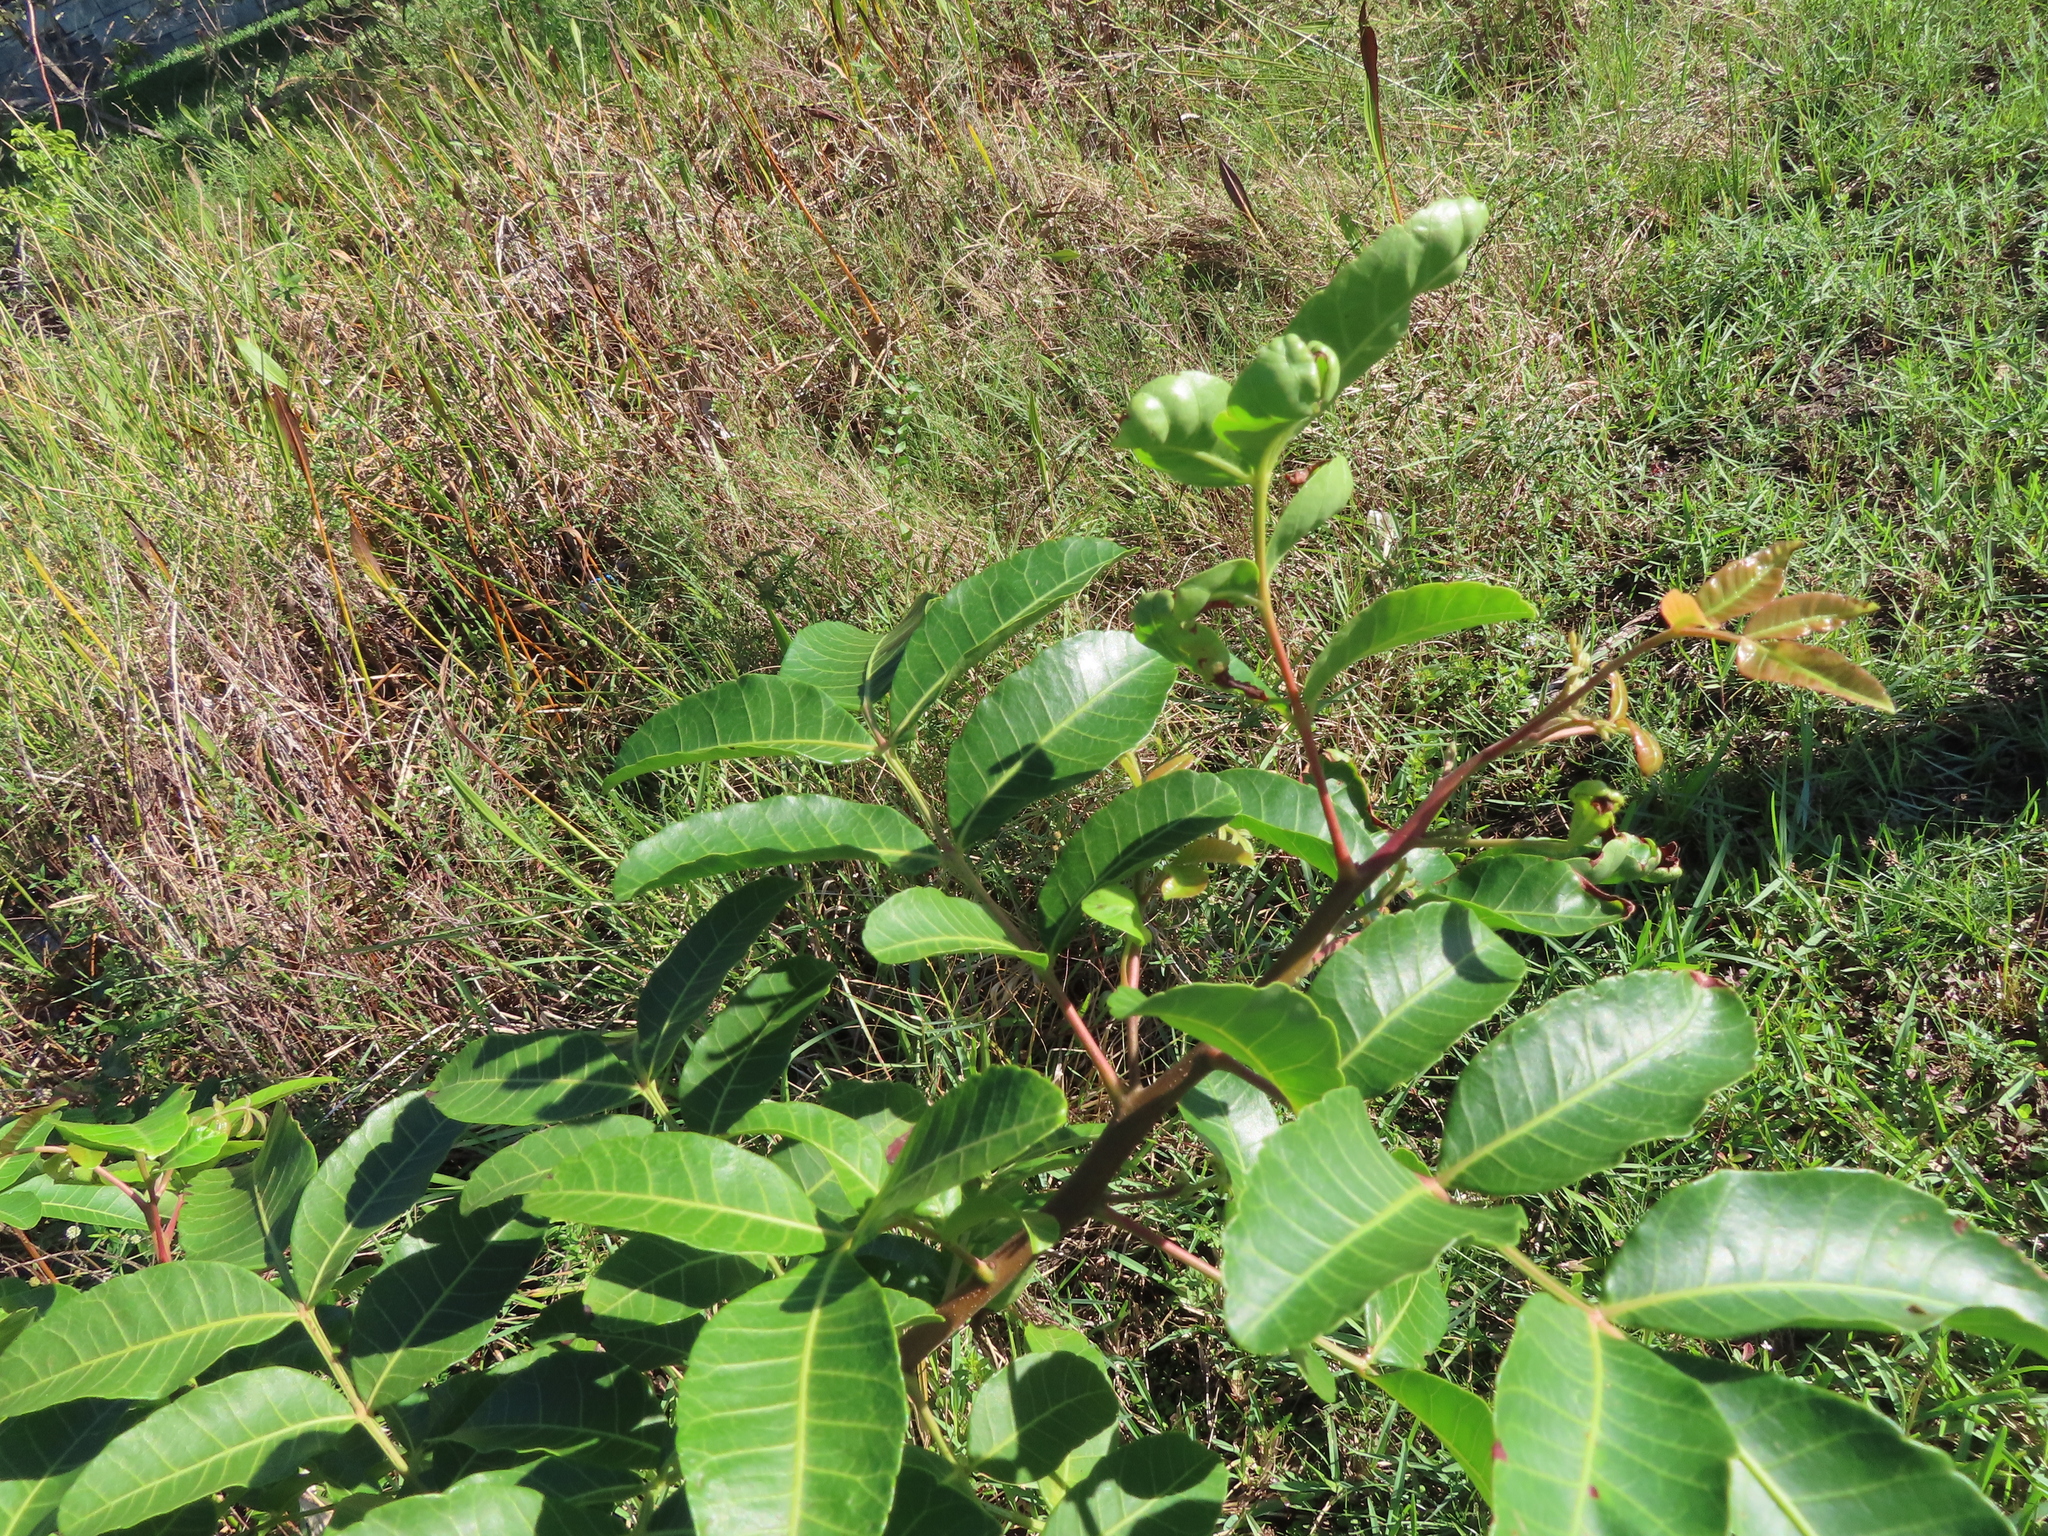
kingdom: Plantae
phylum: Tracheophyta
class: Magnoliopsida
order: Sapindales
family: Anacardiaceae
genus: Schinus
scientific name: Schinus terebinthifolia
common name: Brazilian peppertree
